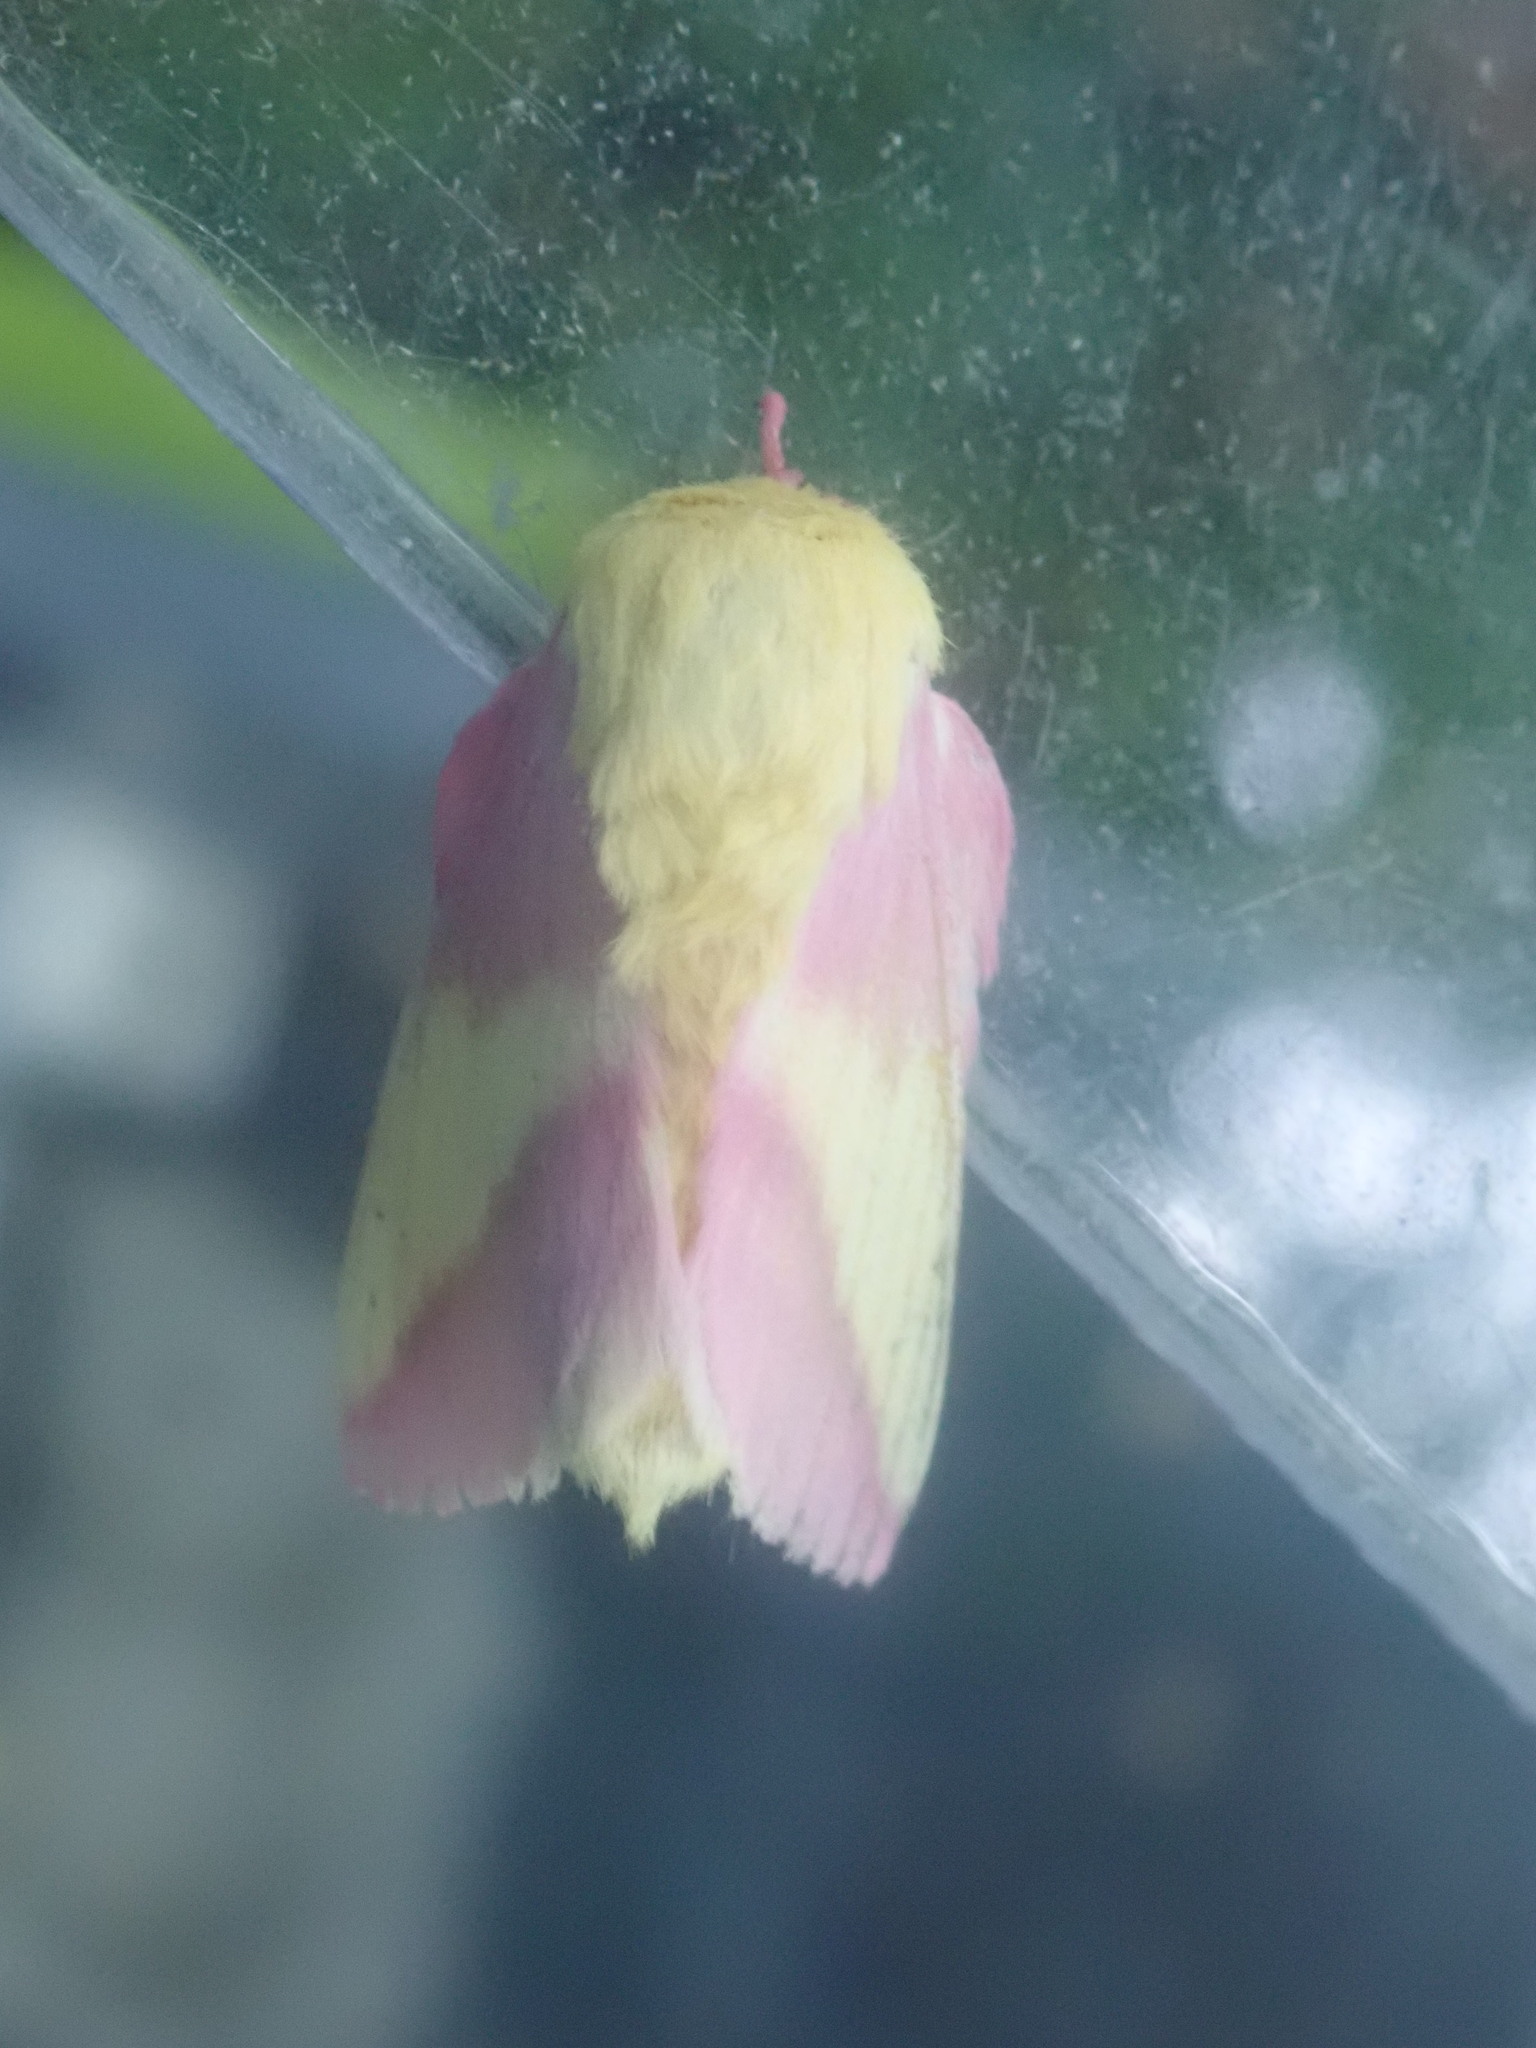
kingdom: Animalia
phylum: Arthropoda
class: Insecta
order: Lepidoptera
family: Saturniidae
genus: Dryocampa
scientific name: Dryocampa rubicunda
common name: Rosy maple moth
